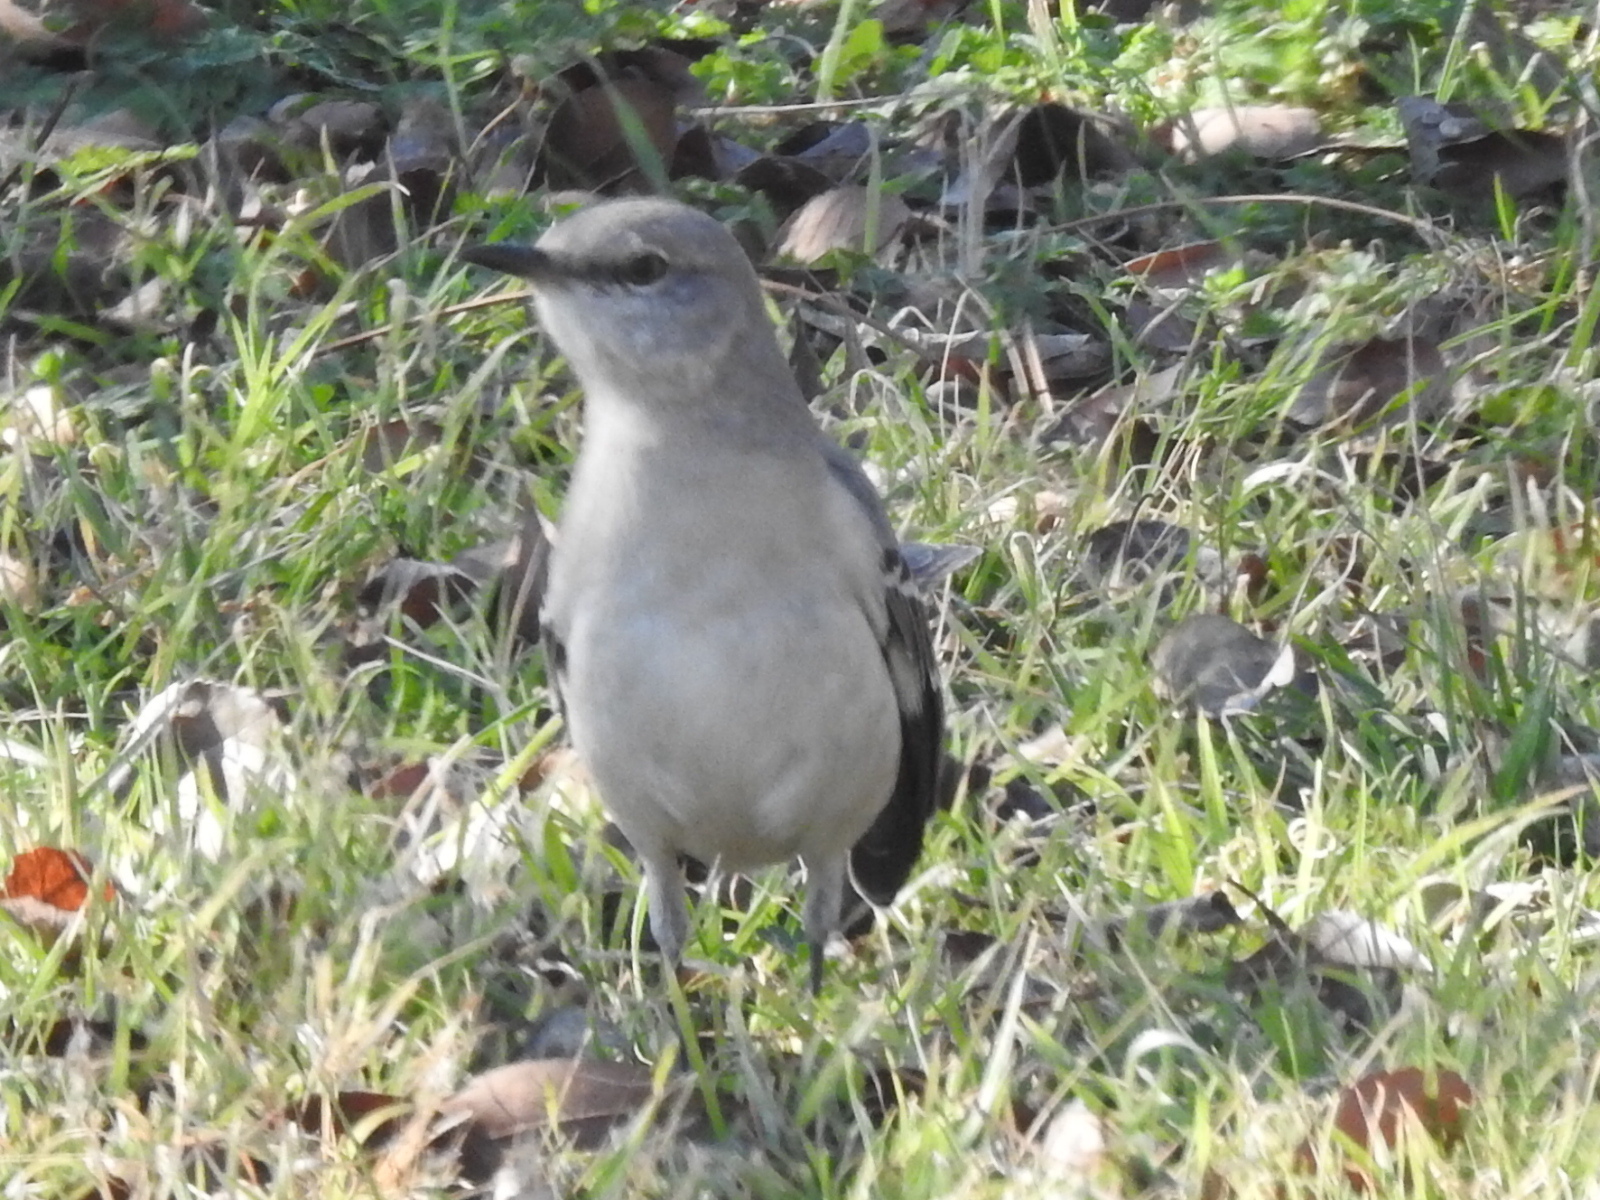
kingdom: Animalia
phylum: Chordata
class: Aves
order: Passeriformes
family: Mimidae
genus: Mimus
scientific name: Mimus polyglottos
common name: Northern mockingbird
